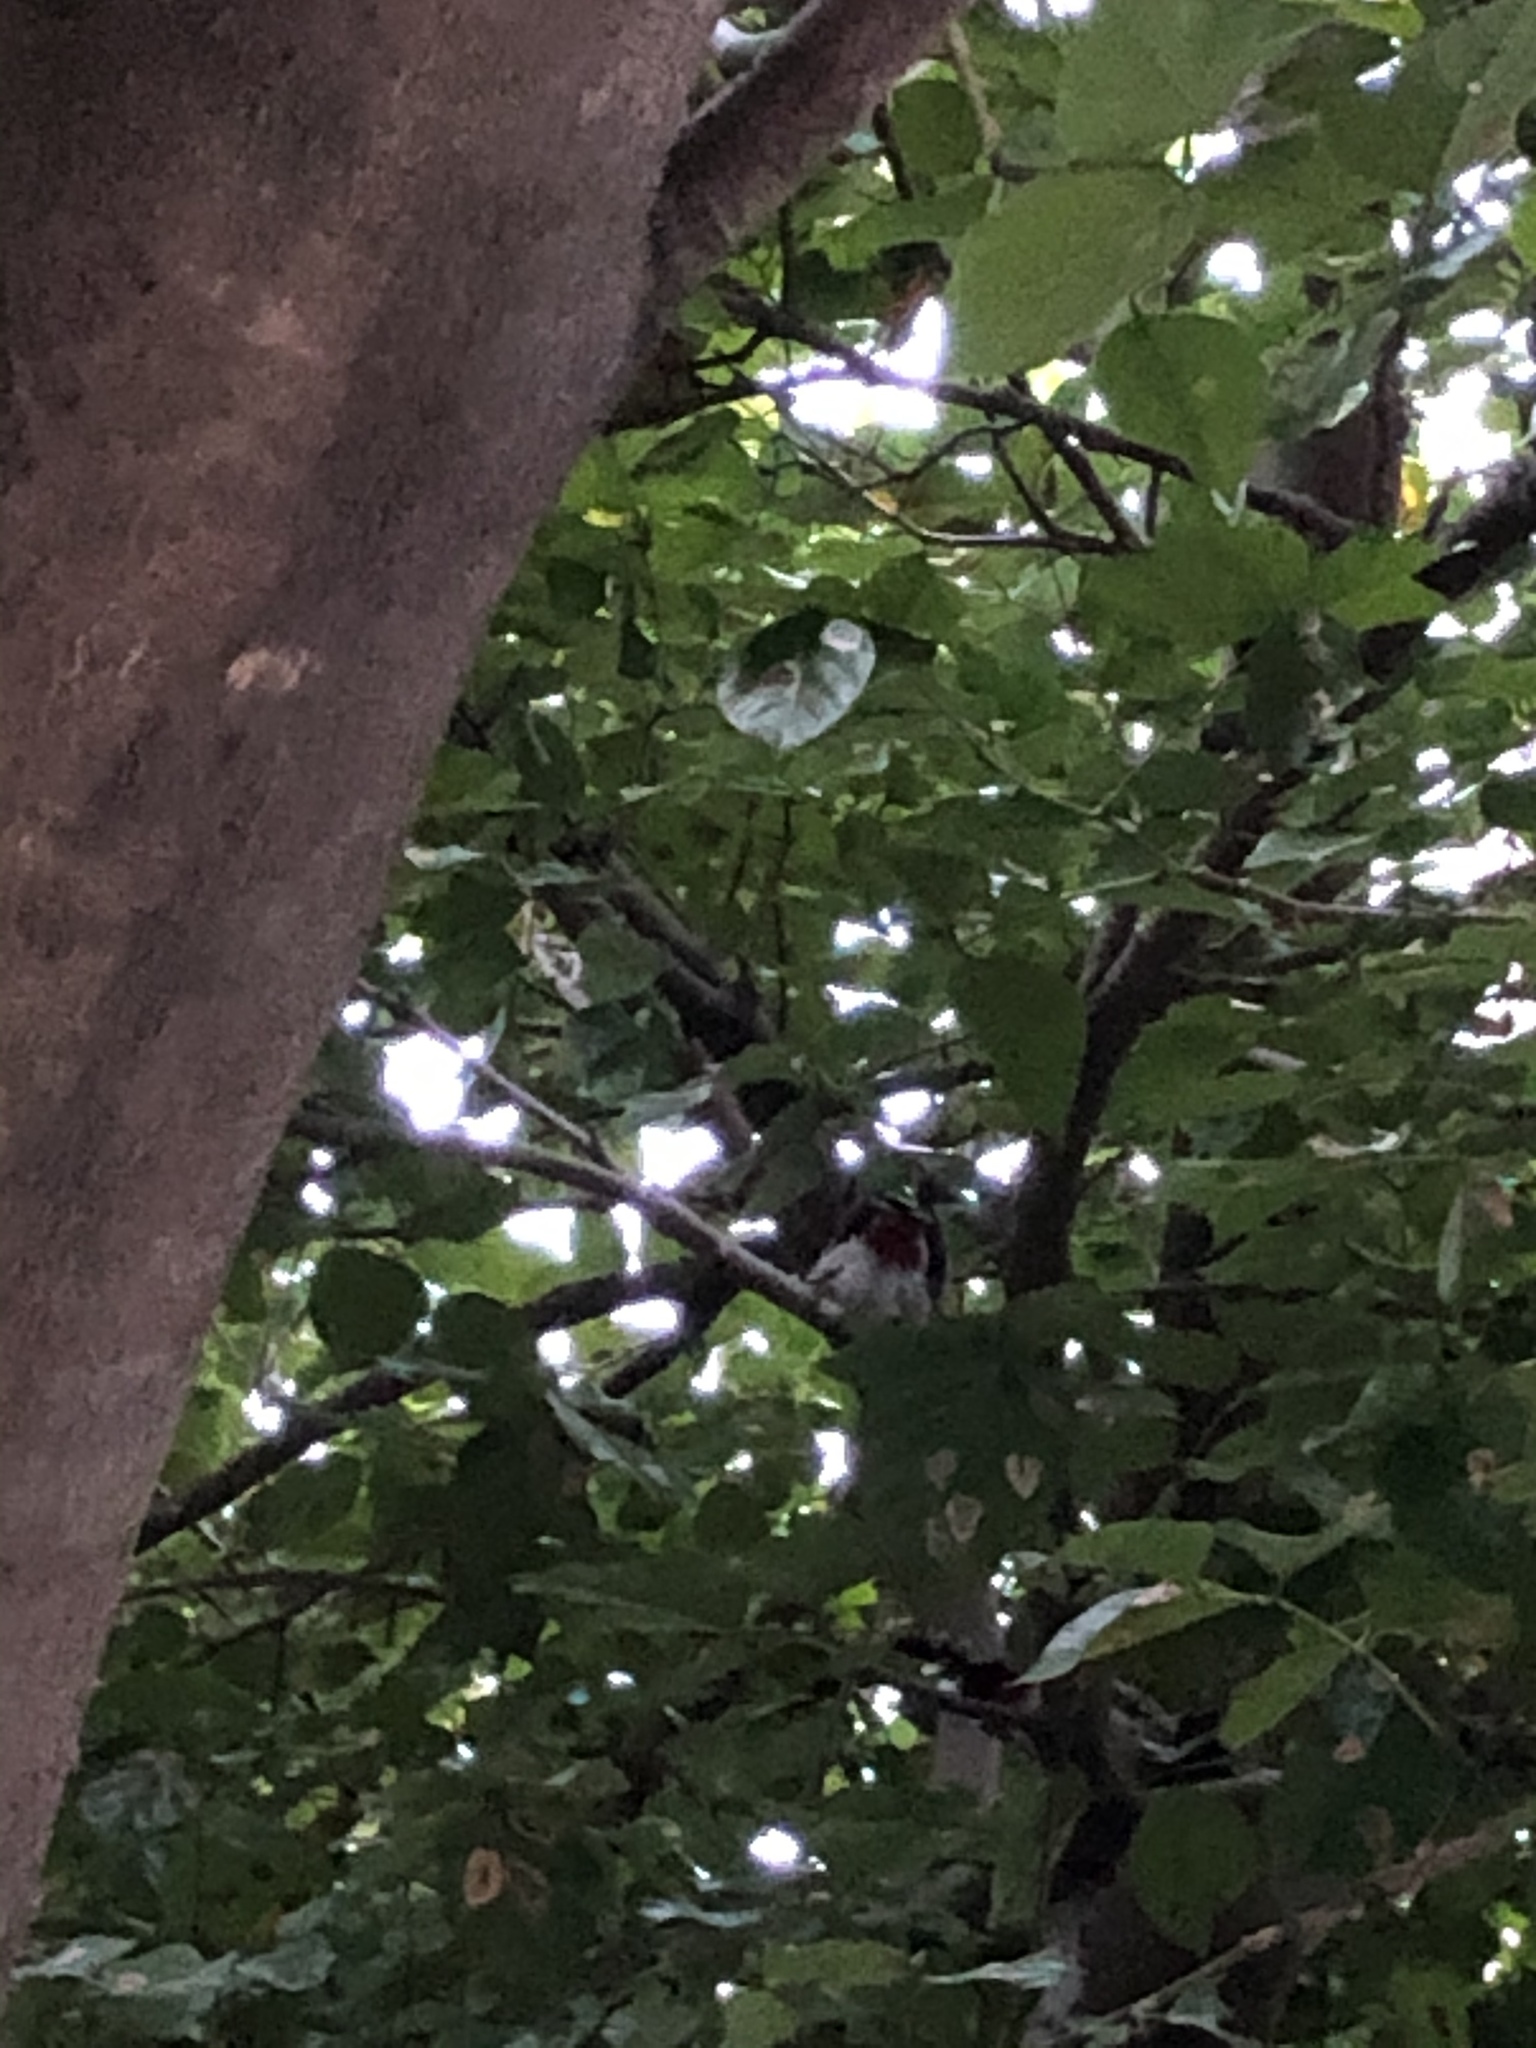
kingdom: Animalia
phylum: Chordata
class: Aves
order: Passeriformes
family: Pycnonotidae
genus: Pycnonotus
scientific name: Pycnonotus cafer
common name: Red-vented bulbul
